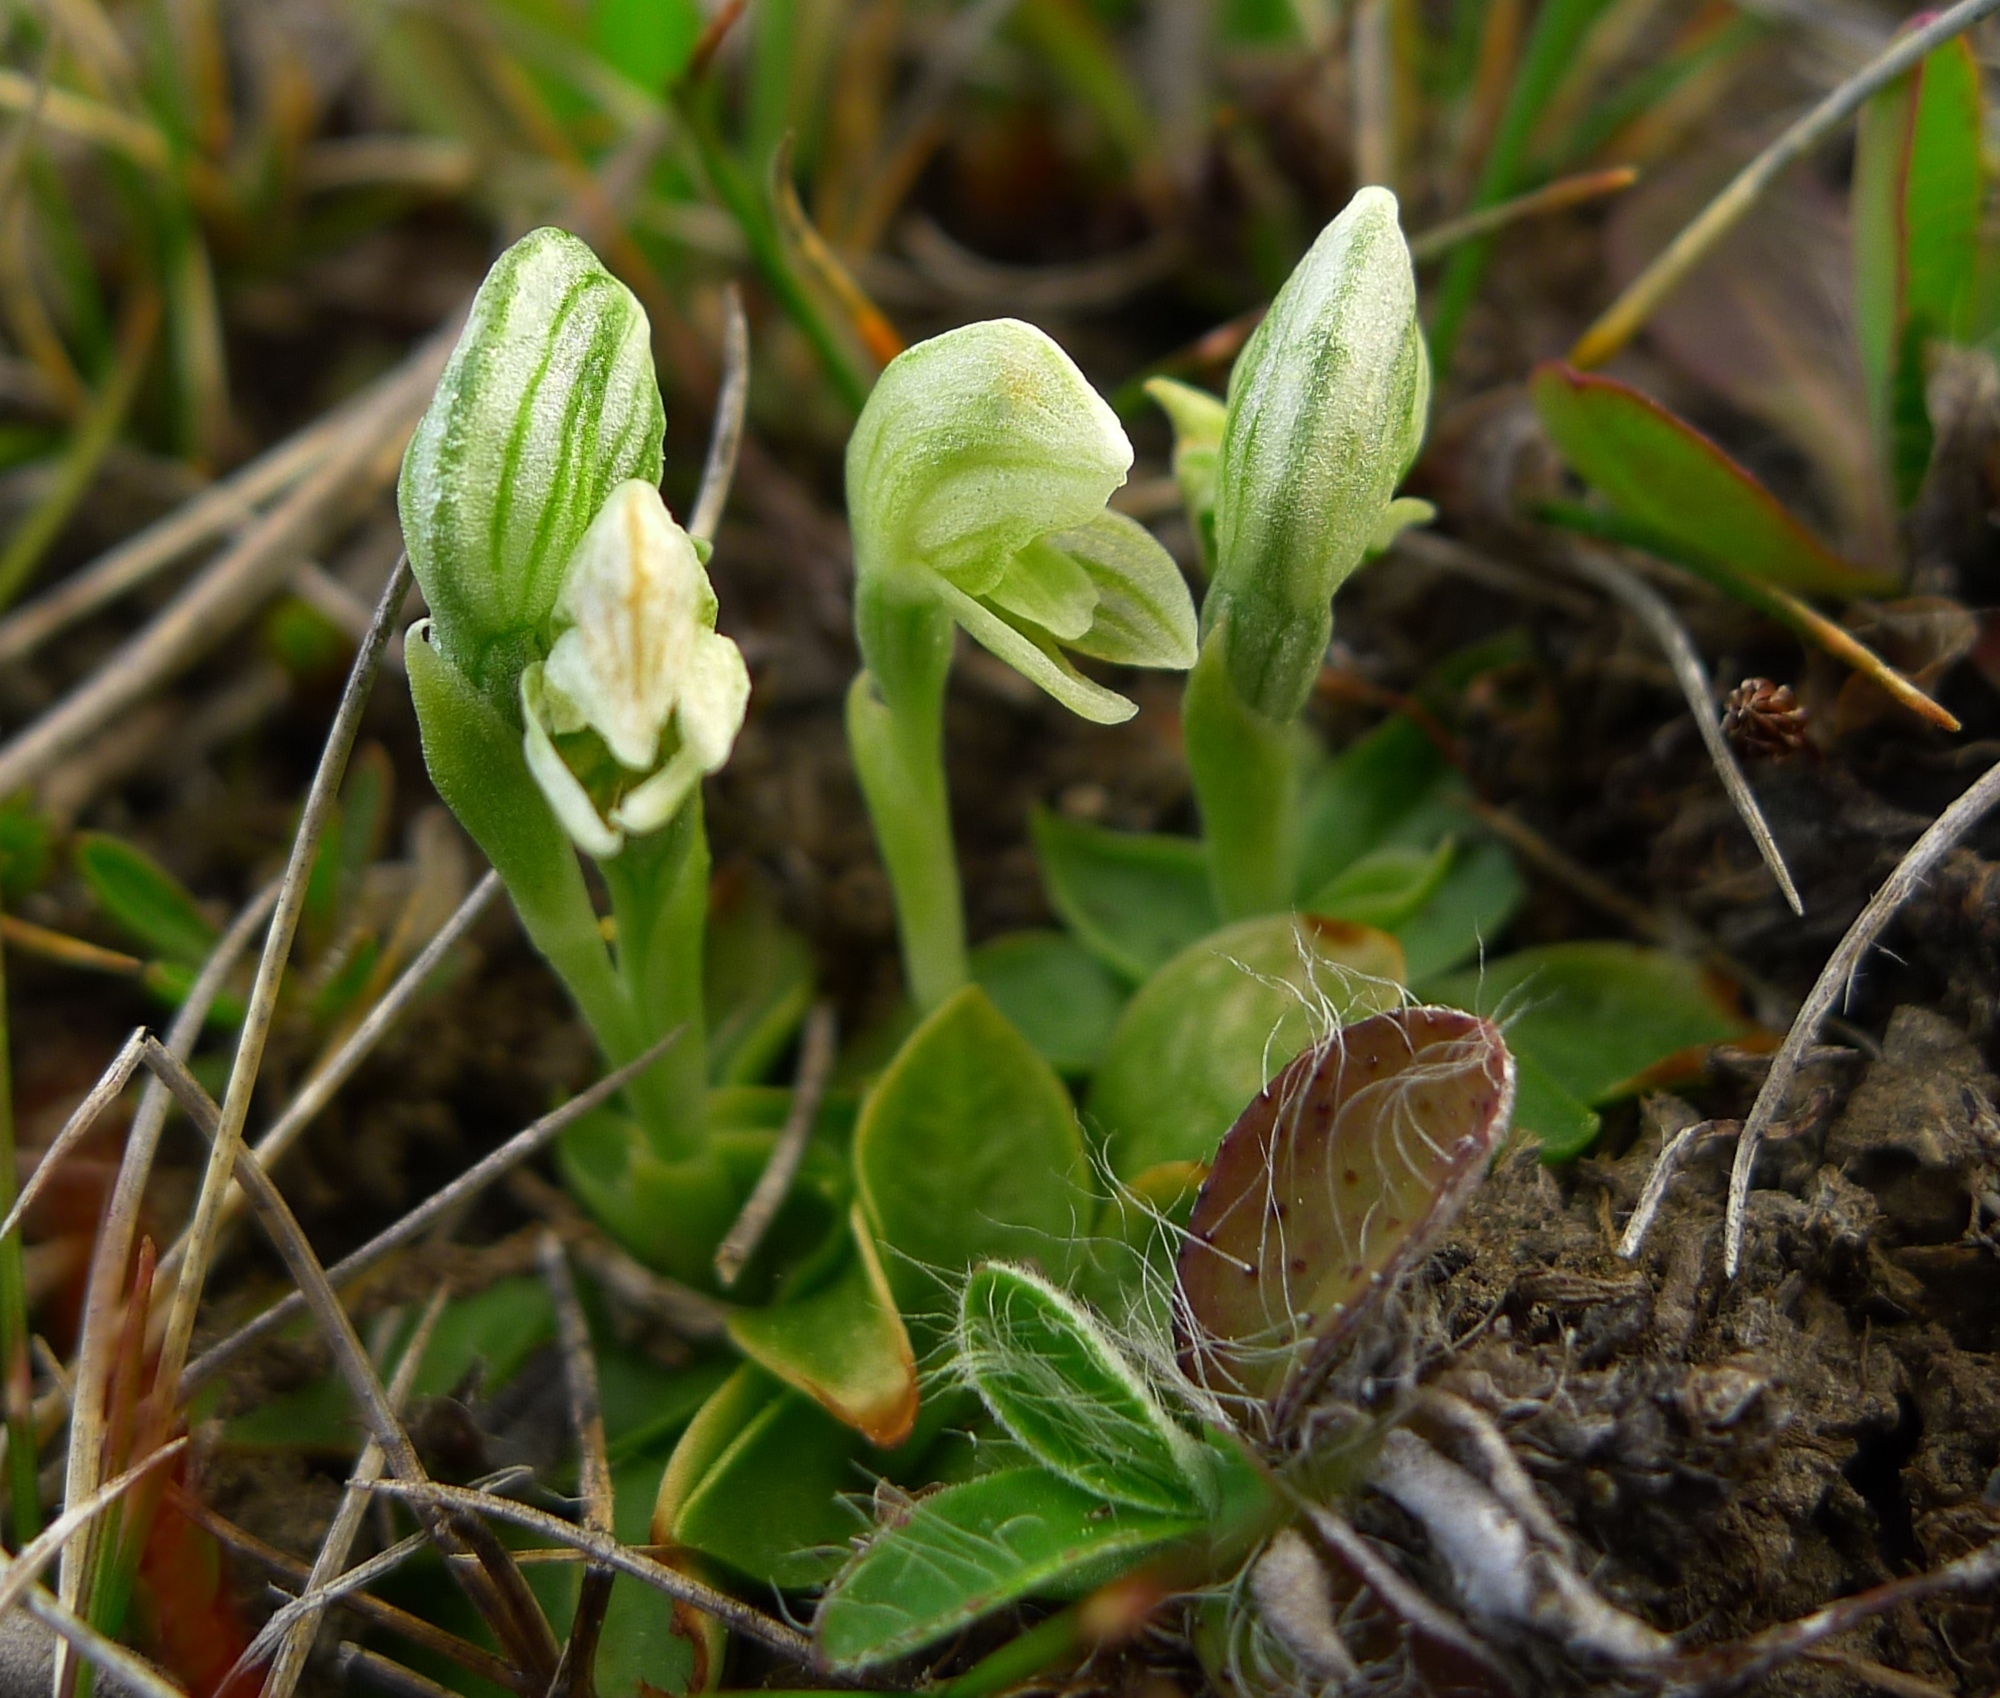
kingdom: Plantae
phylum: Tracheophyta
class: Liliopsida
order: Asparagales
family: Orchidaceae
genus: Pterostylis
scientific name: Pterostylis tanypoda
